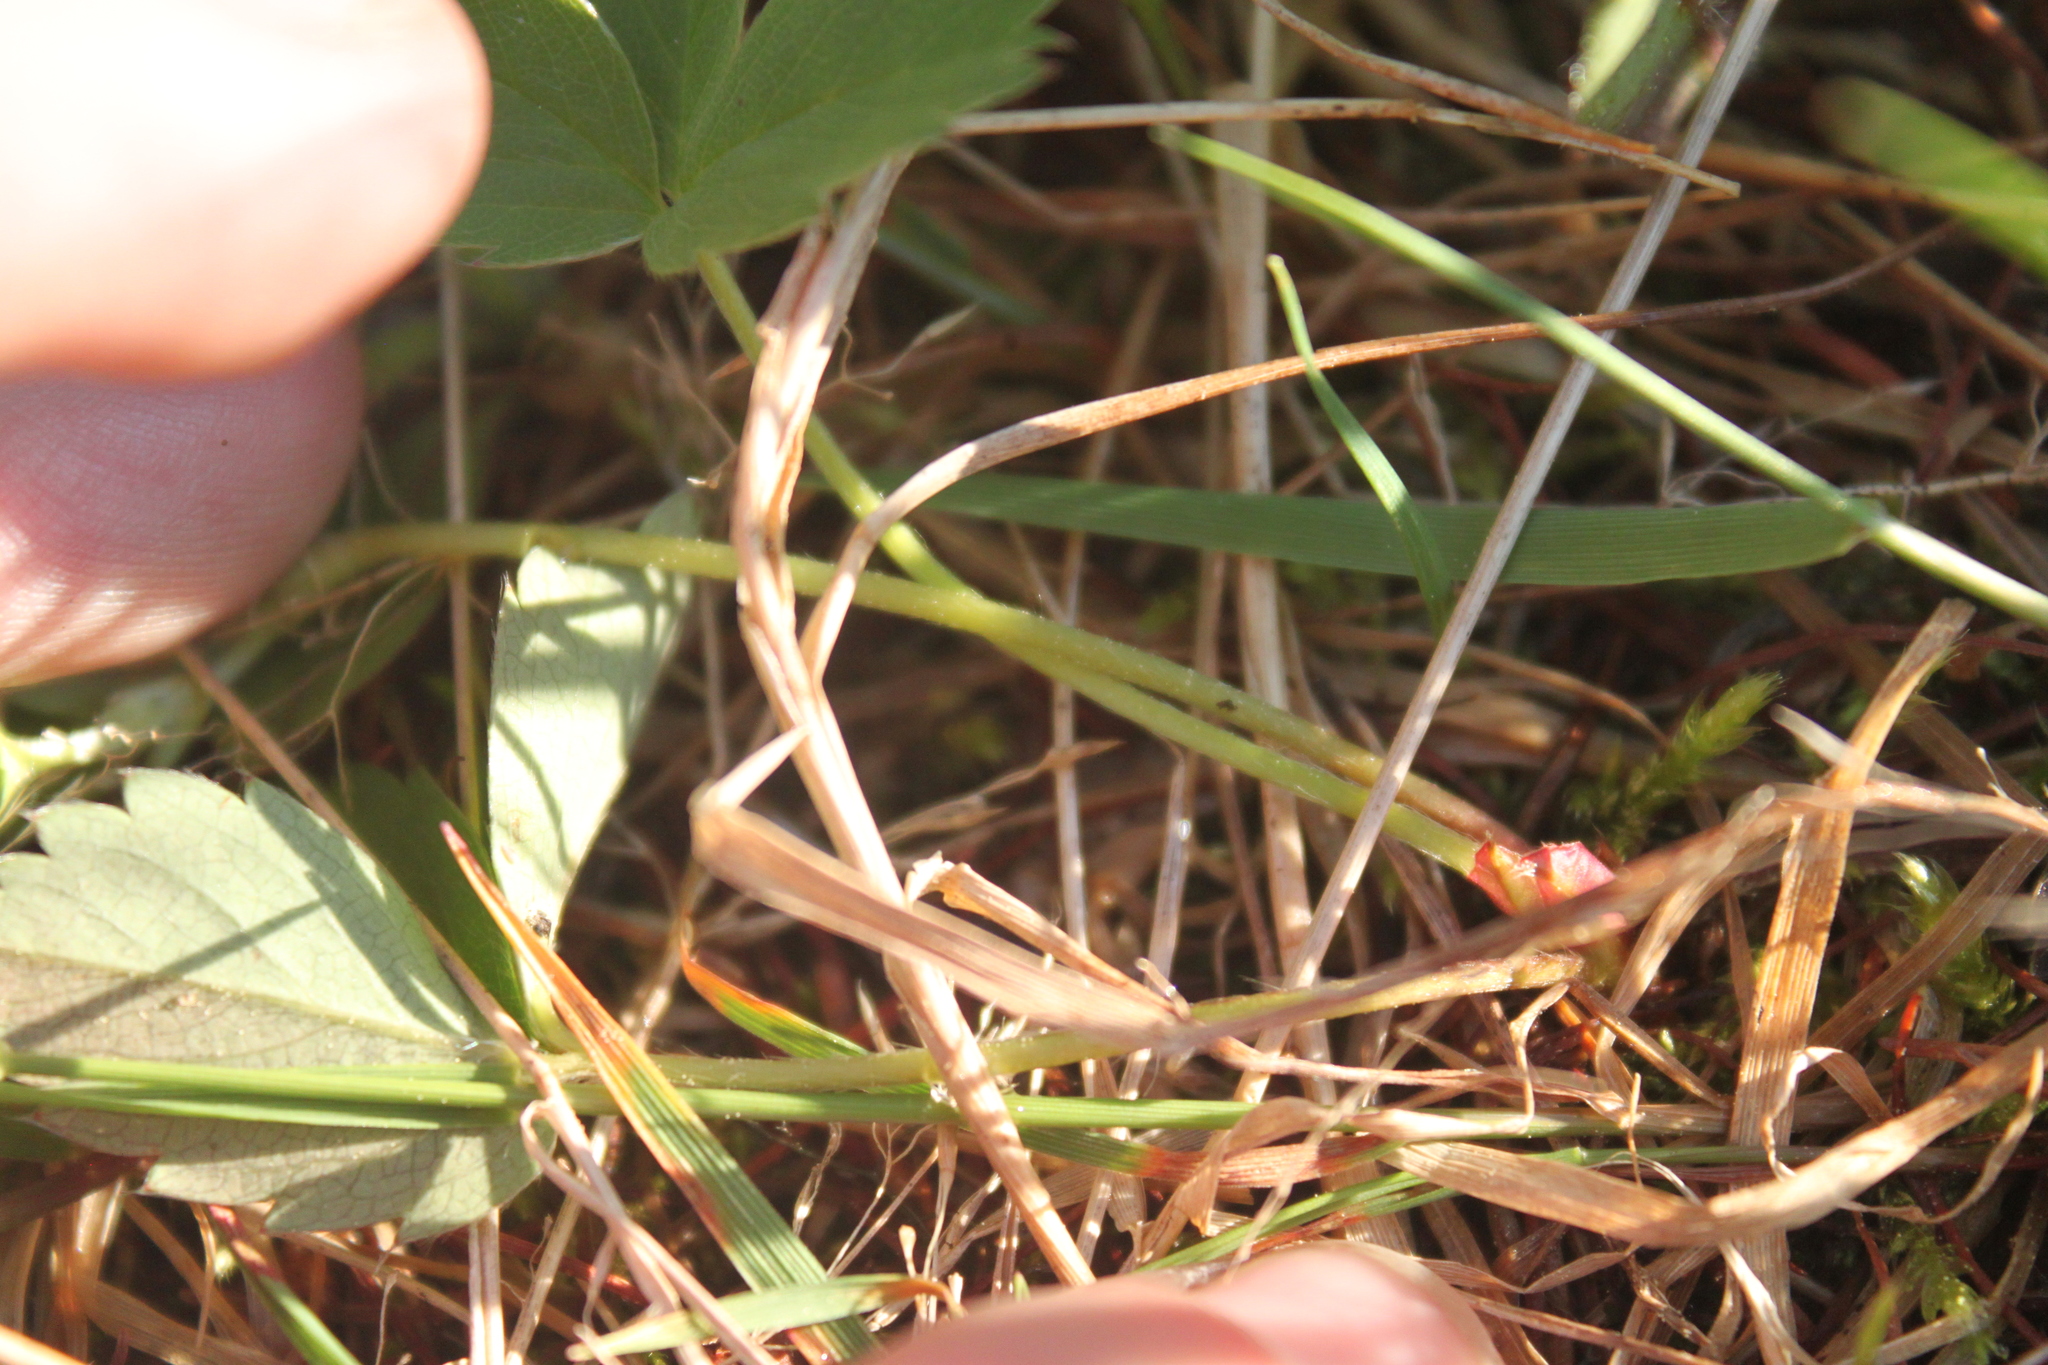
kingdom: Plantae
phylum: Tracheophyta
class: Magnoliopsida
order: Rosales
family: Rosaceae
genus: Fragaria
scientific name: Fragaria virginiana
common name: Thickleaved wild strawberry
